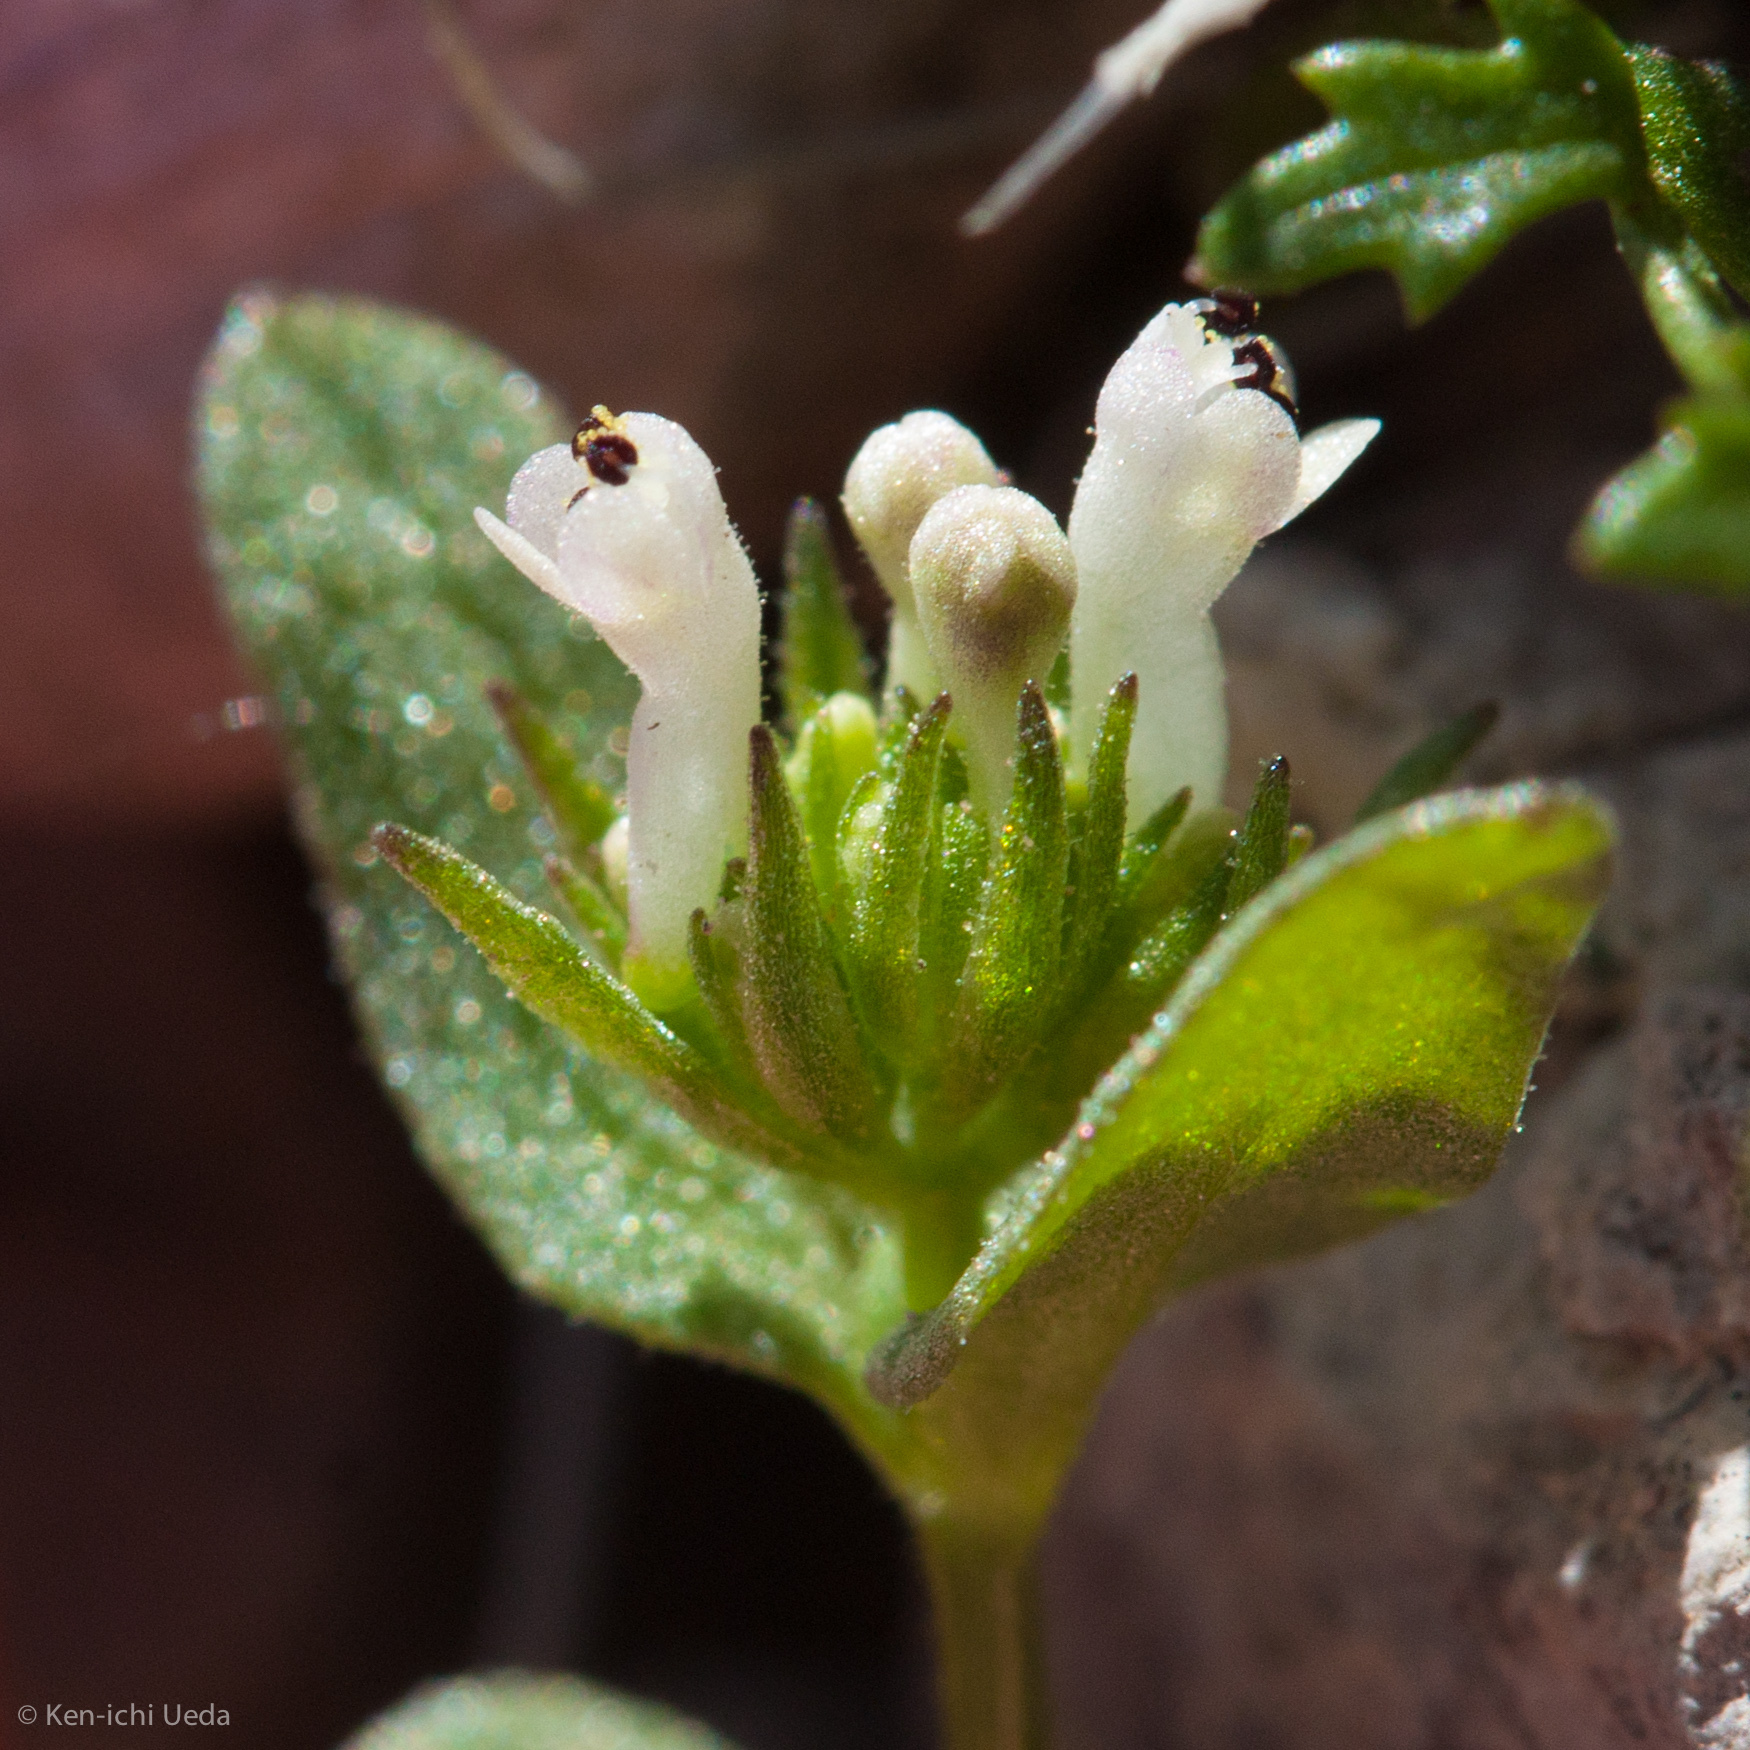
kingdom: Plantae
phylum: Tracheophyta
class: Magnoliopsida
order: Dipsacales
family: Caprifoliaceae
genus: Plectritis
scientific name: Plectritis macroptera
